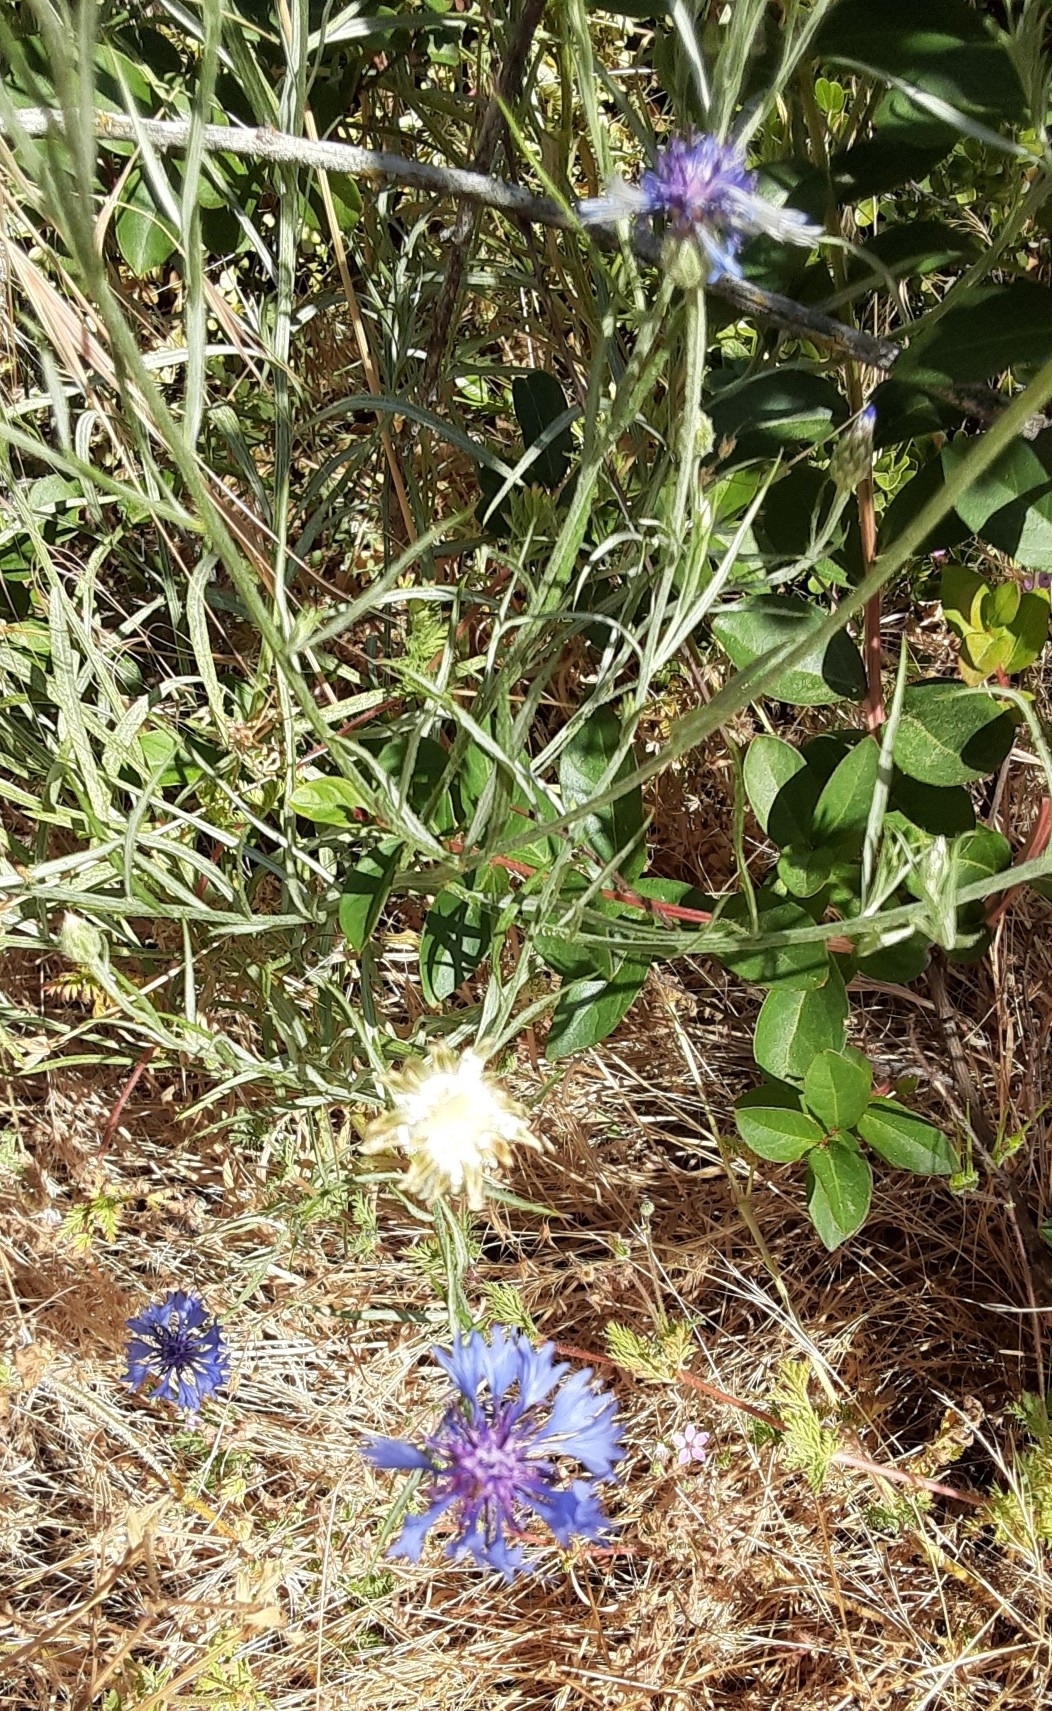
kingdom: Plantae
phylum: Tracheophyta
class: Magnoliopsida
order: Asterales
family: Asteraceae
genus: Centaurea
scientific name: Centaurea cyanus
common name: Cornflower
